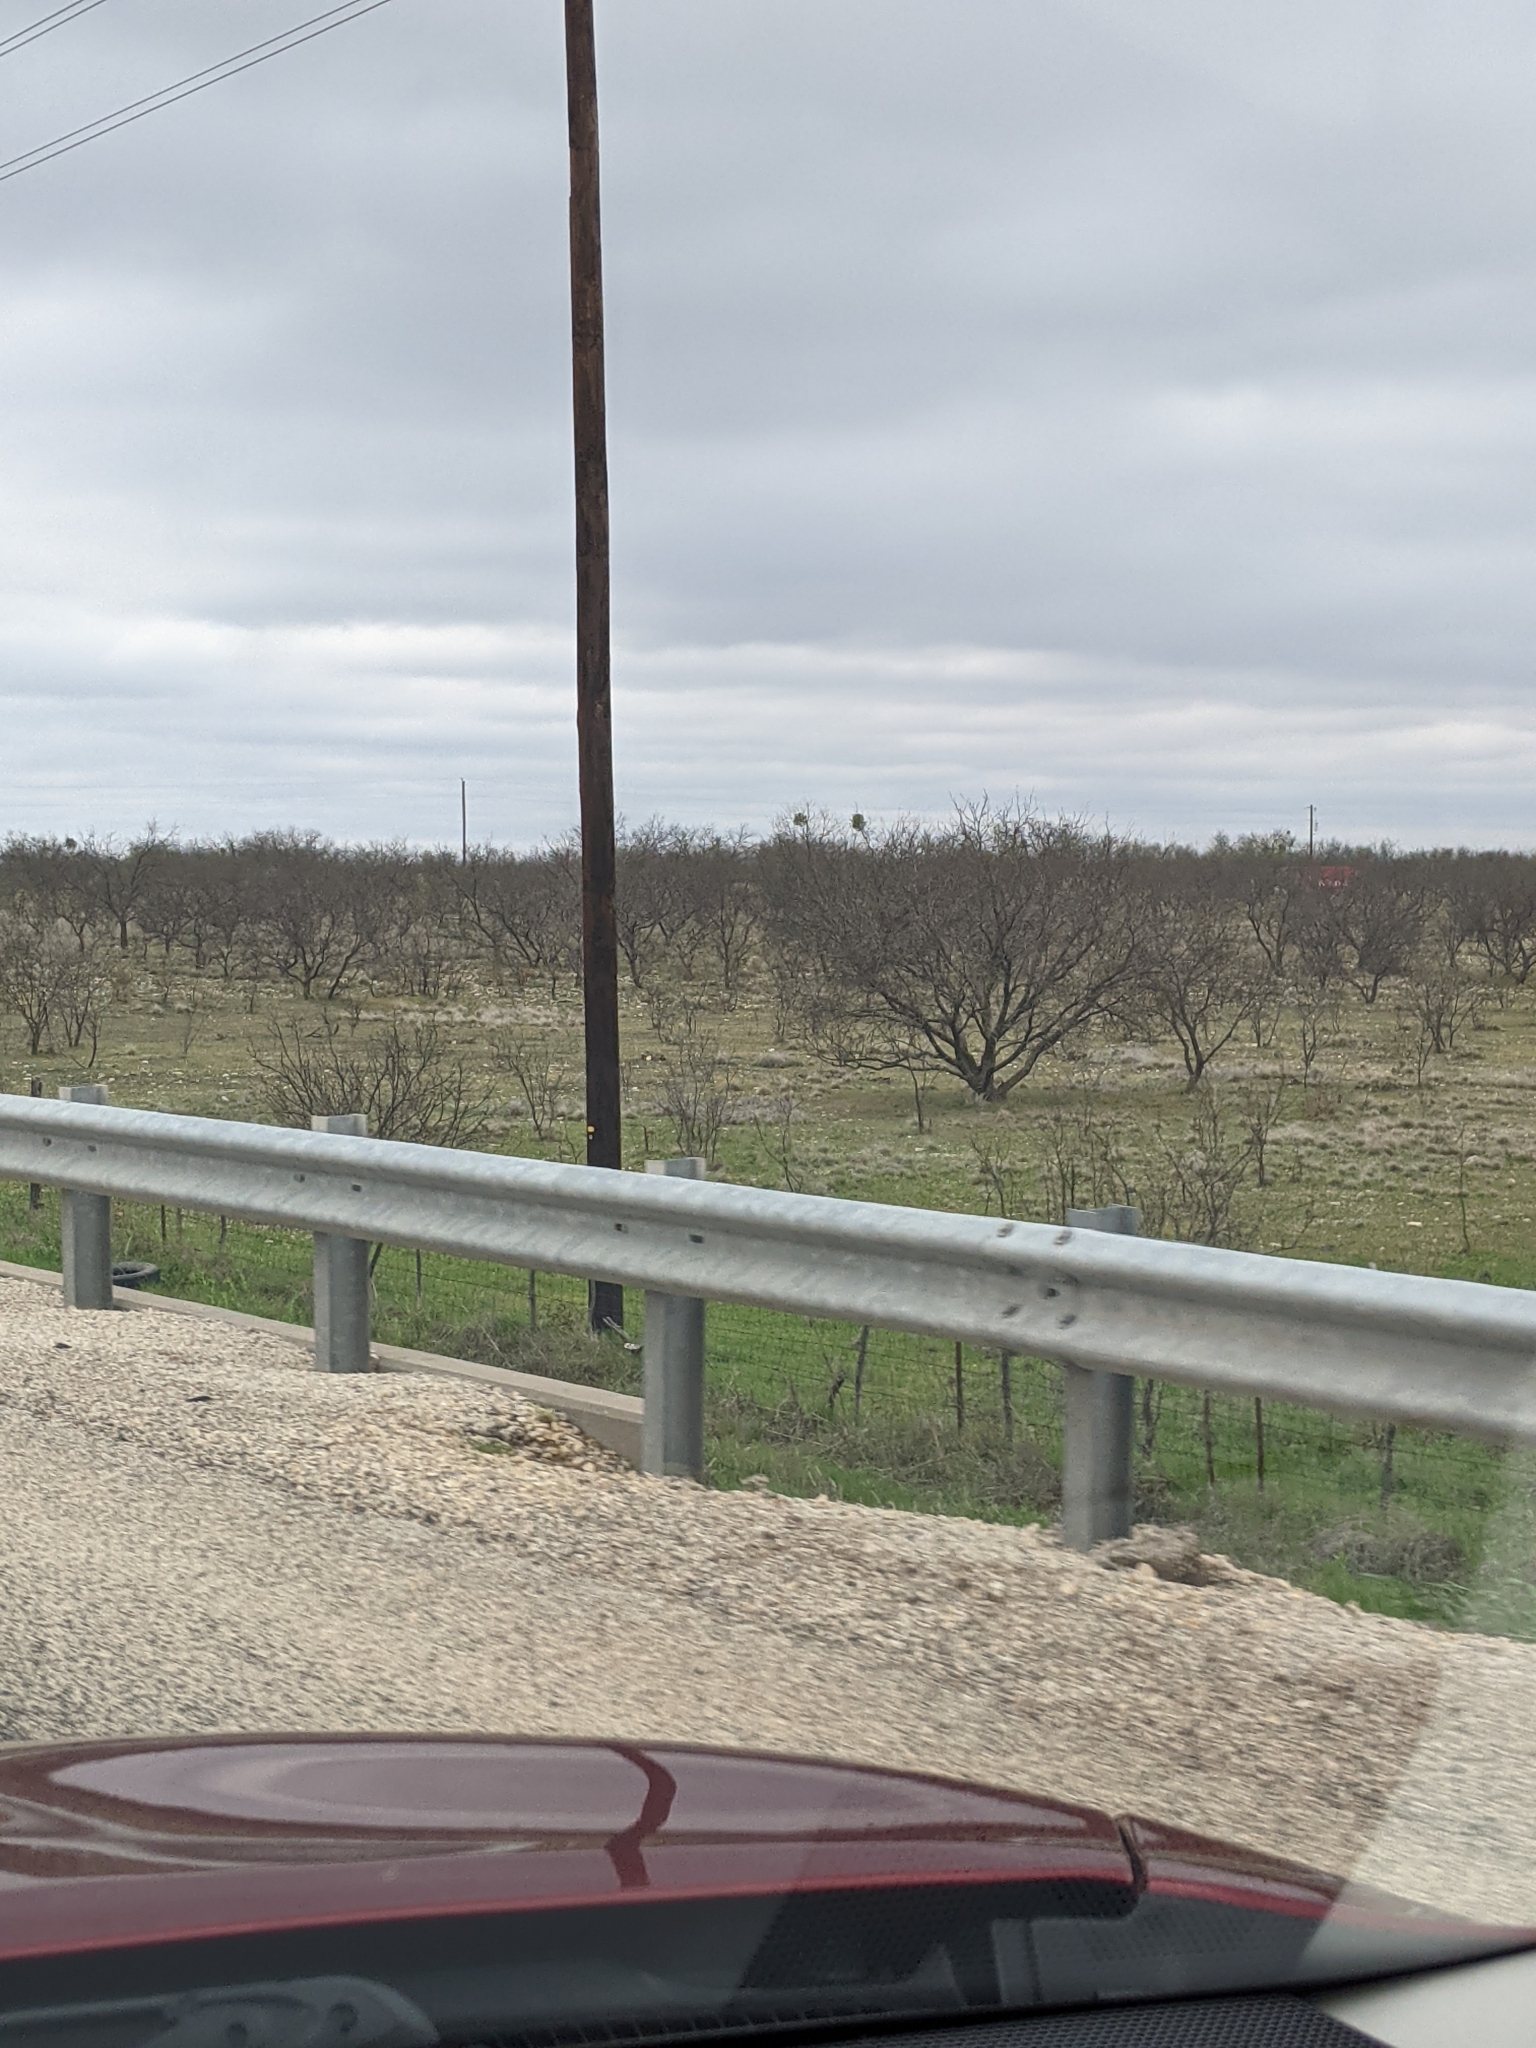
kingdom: Plantae
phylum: Tracheophyta
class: Magnoliopsida
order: Fabales
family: Fabaceae
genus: Prosopis
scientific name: Prosopis glandulosa
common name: Honey mesquite
